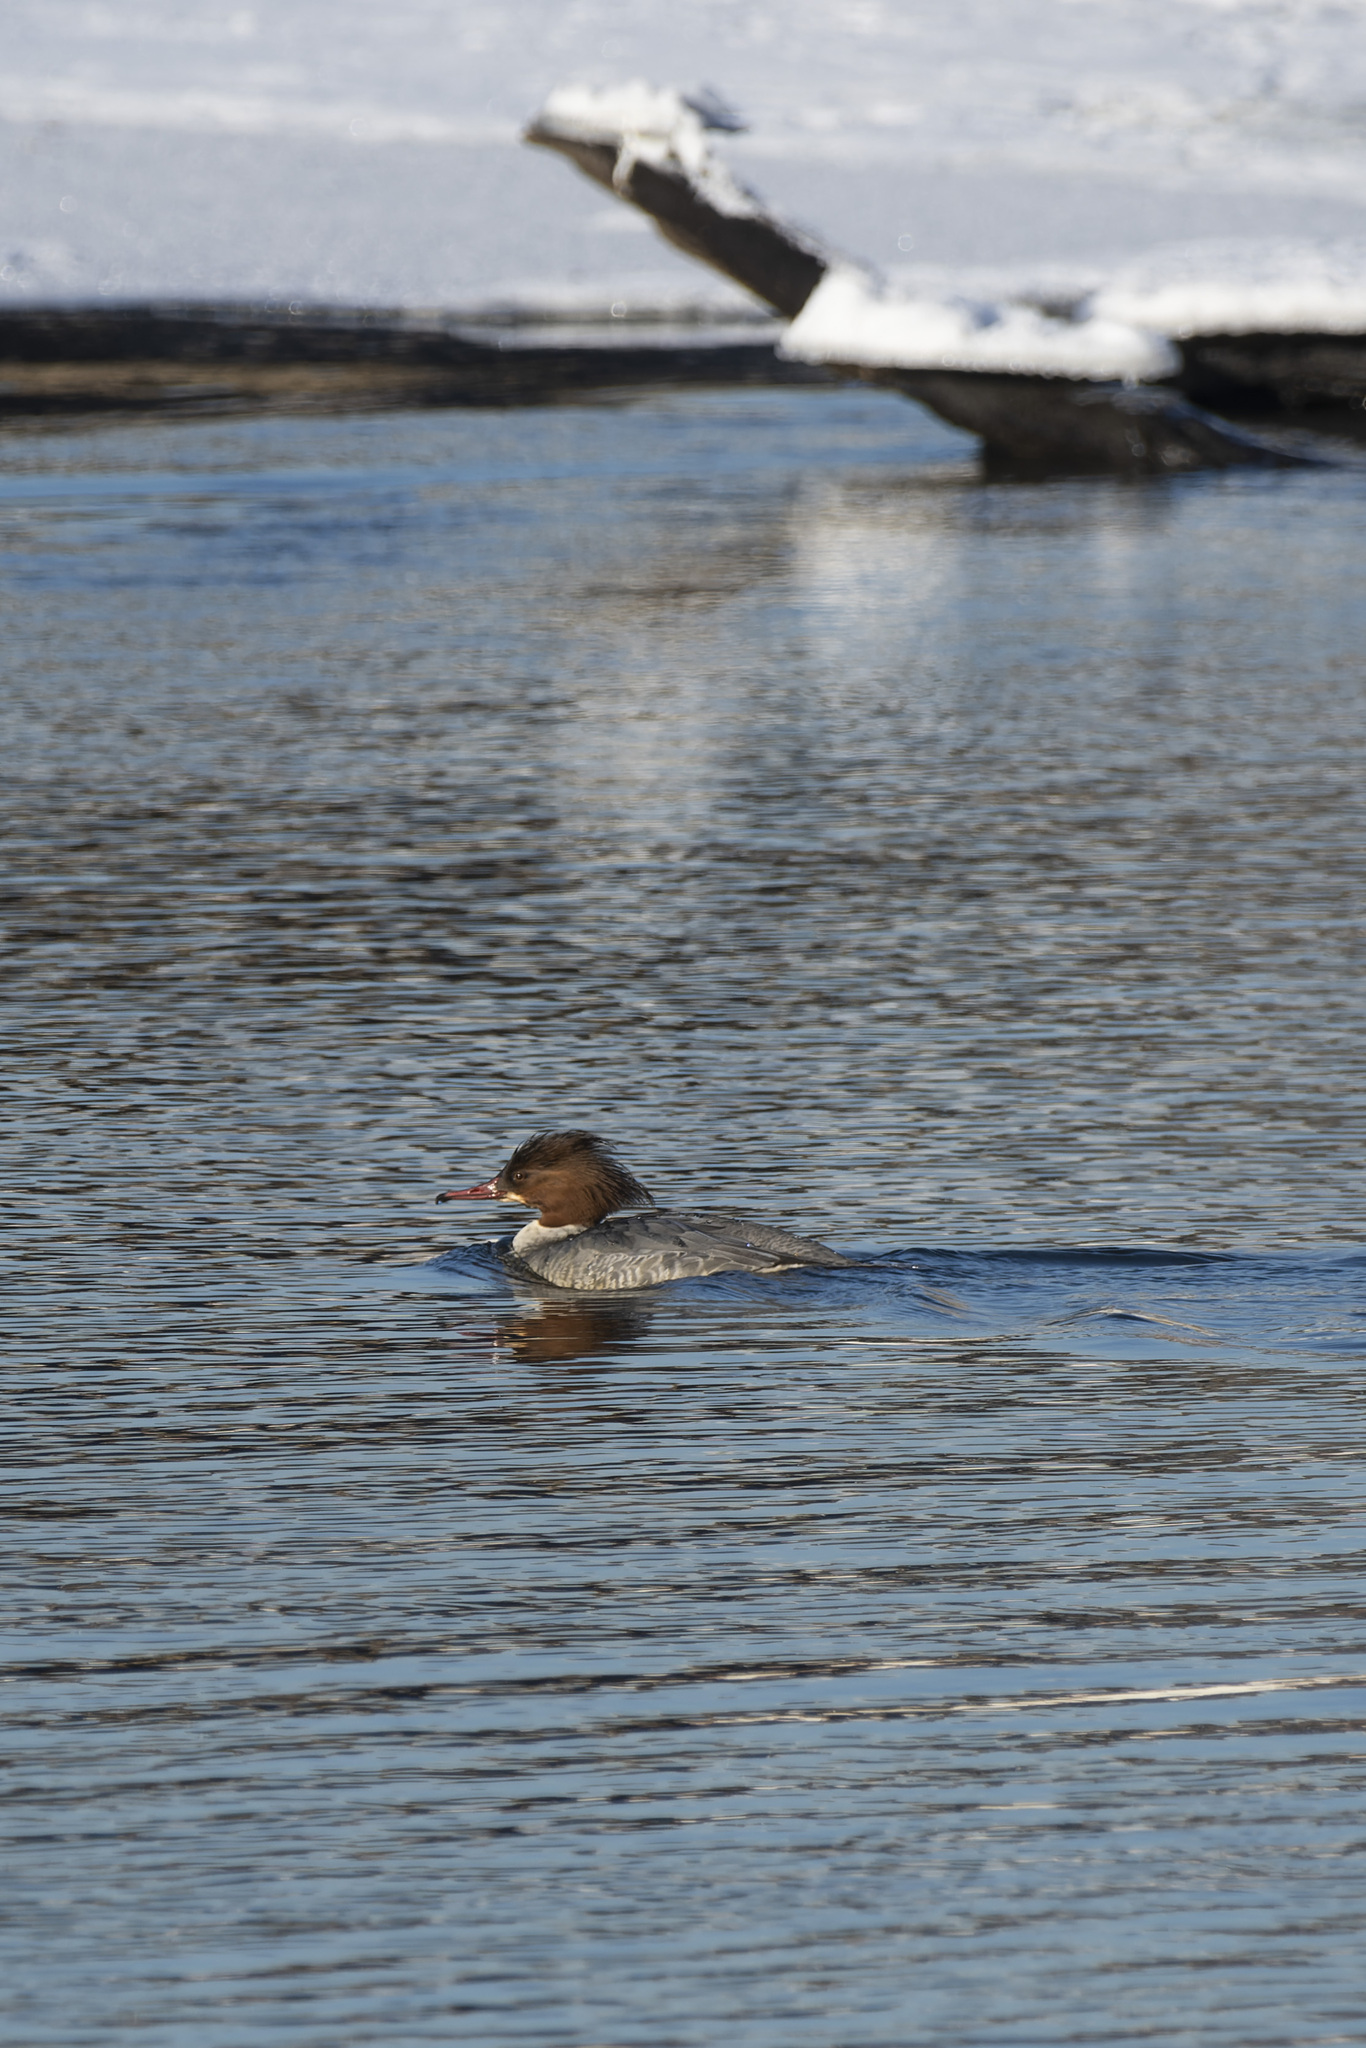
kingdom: Animalia
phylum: Chordata
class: Aves
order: Anseriformes
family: Anatidae
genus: Mergus
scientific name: Mergus merganser
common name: Common merganser
